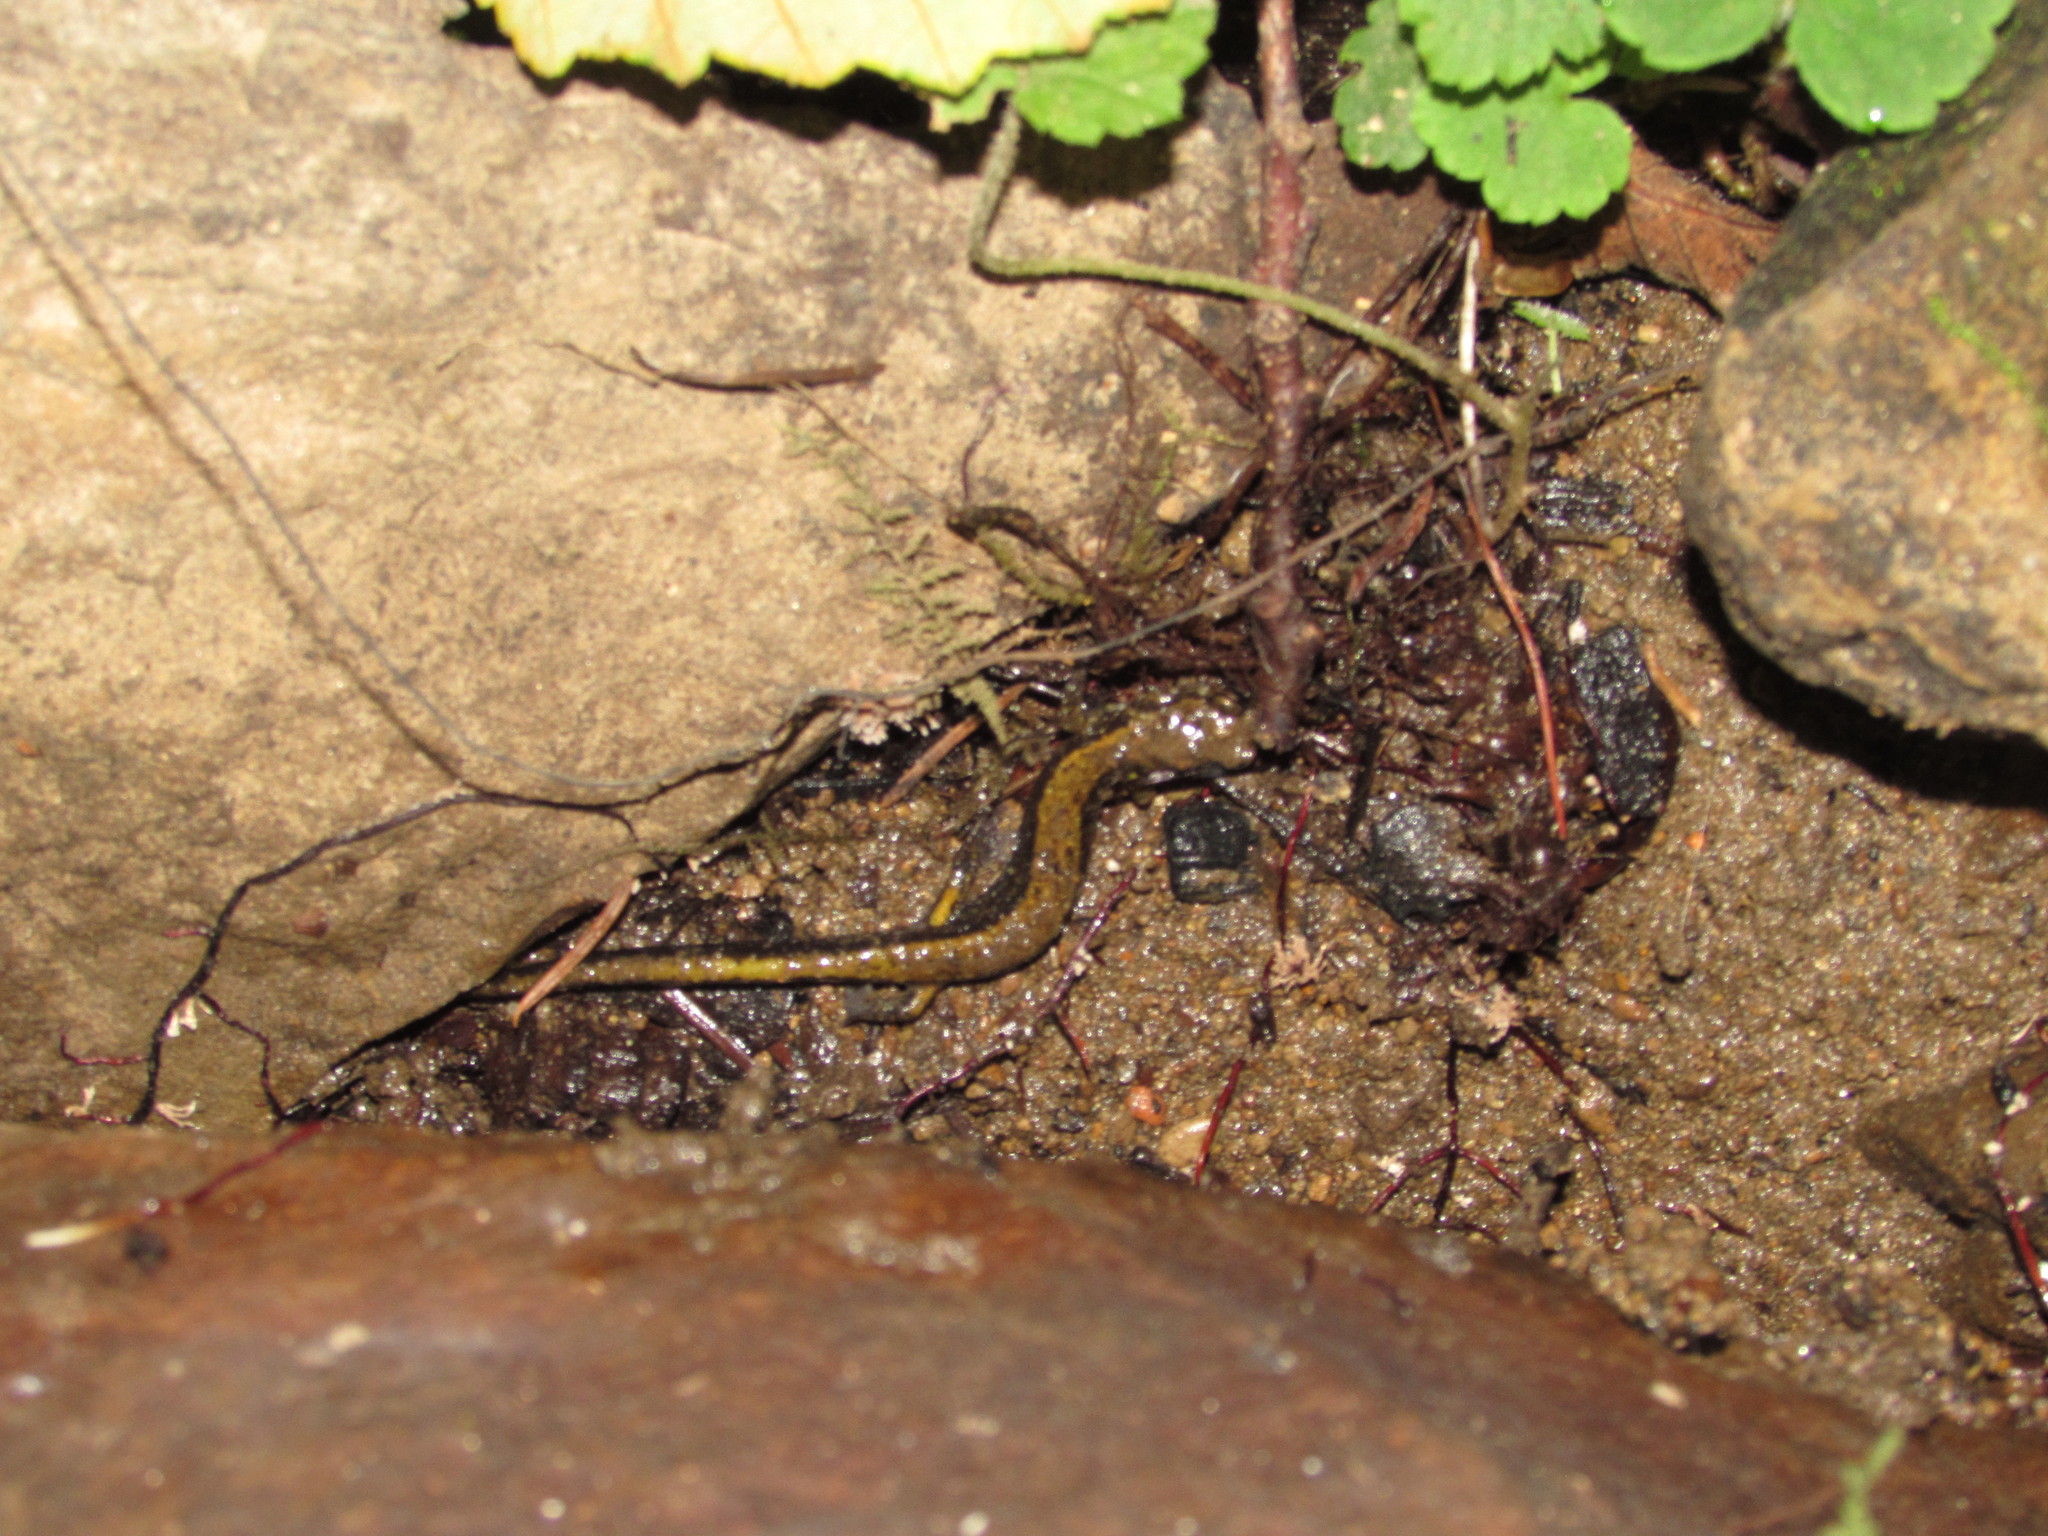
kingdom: Animalia
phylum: Chordata
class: Amphibia
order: Caudata
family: Plethodontidae
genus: Plethodon
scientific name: Plethodon dunni
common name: Dunn's salamander
